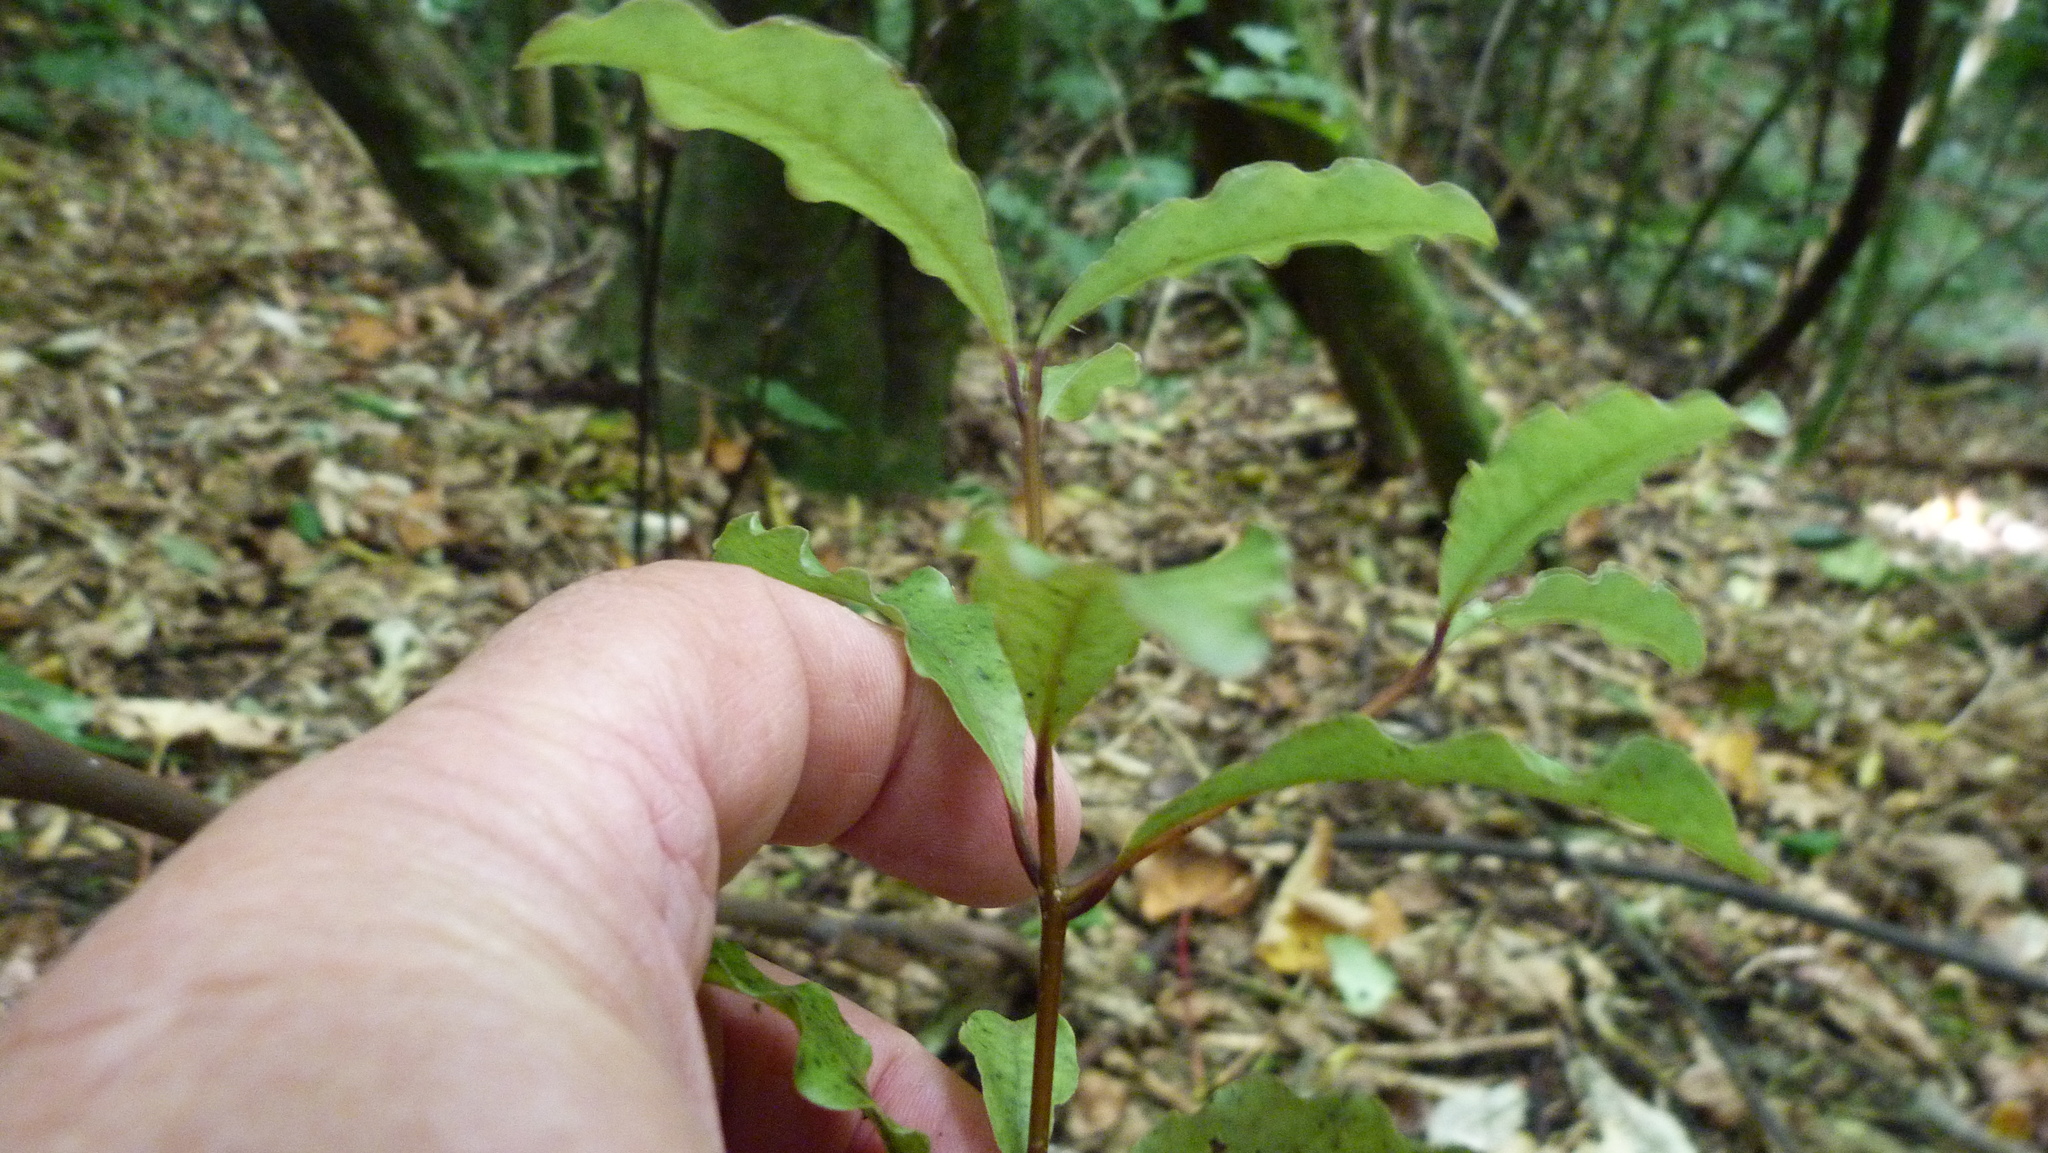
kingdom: Plantae
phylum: Tracheophyta
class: Magnoliopsida
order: Ericales
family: Primulaceae
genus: Myrsine
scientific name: Myrsine australis
